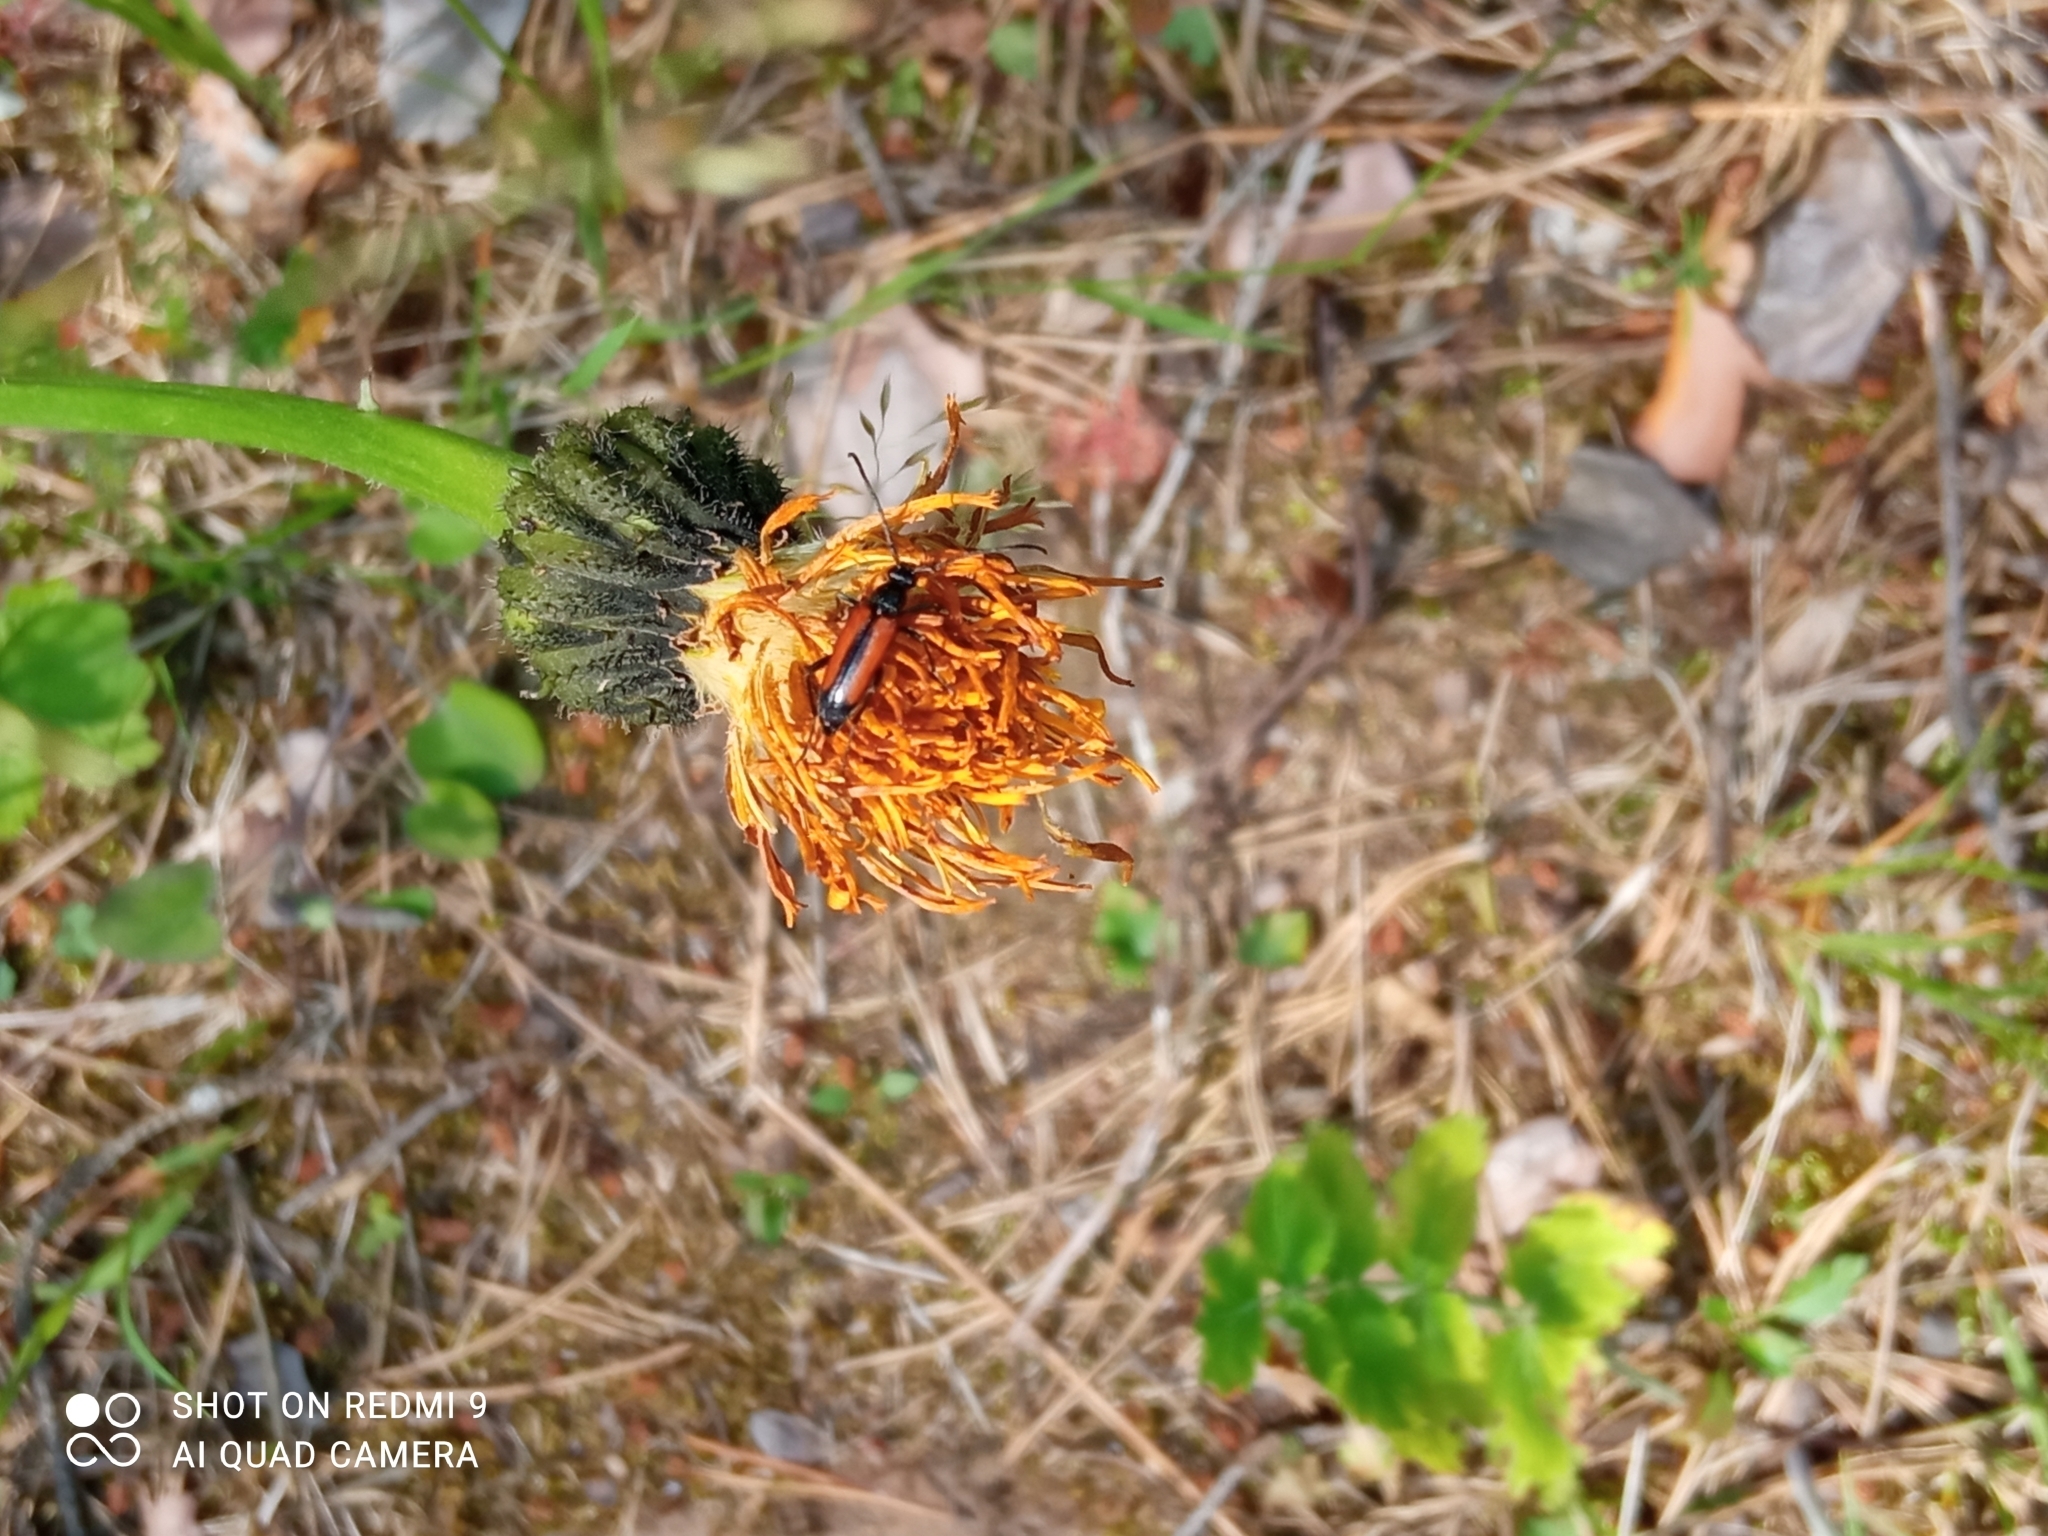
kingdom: Animalia
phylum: Arthropoda
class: Insecta
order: Coleoptera
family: Cerambycidae
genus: Stenurella
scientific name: Stenurella melanura
